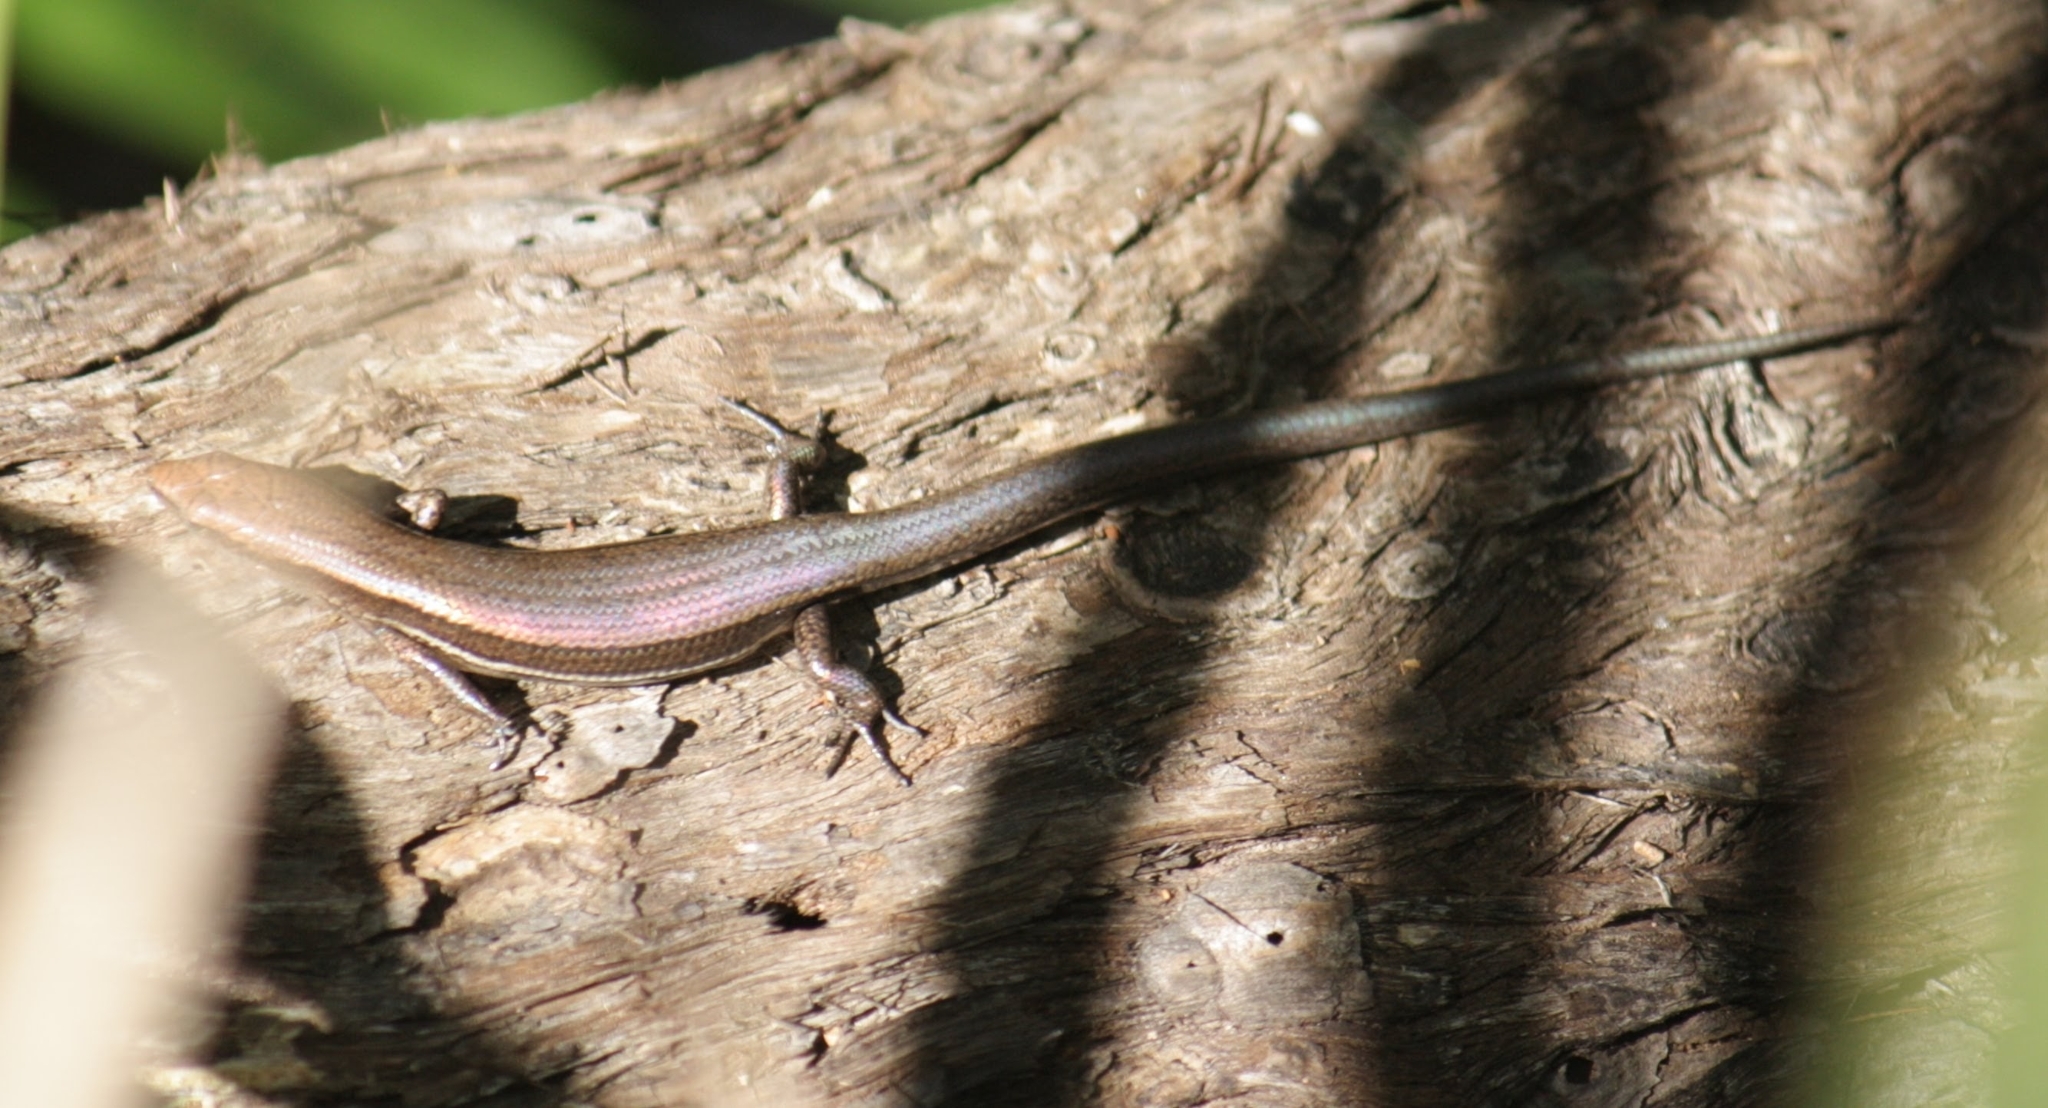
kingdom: Animalia
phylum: Chordata
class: Squamata
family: Scincidae
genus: Lampropholis
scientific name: Lampropholis delicata
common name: Plague skink
